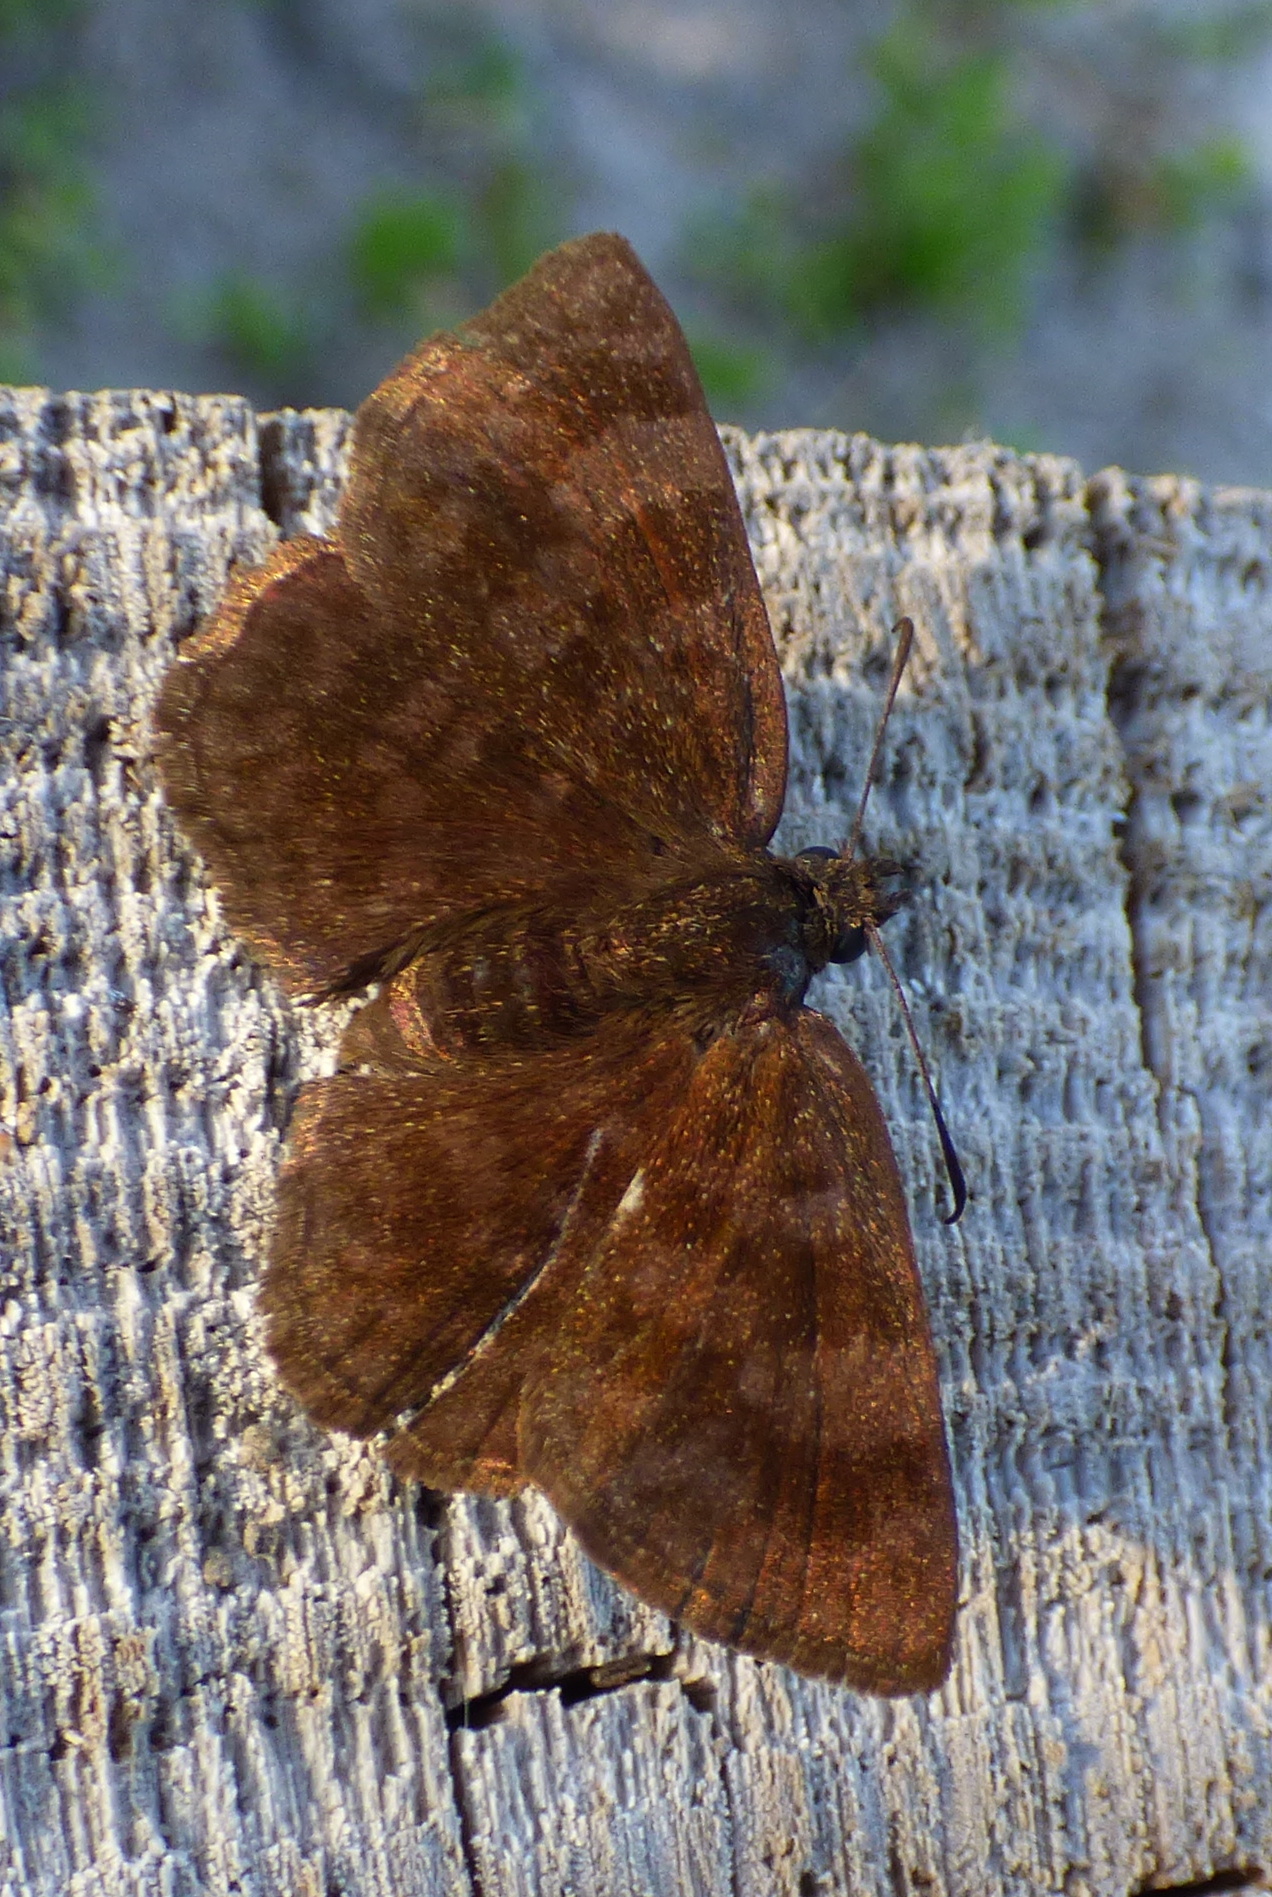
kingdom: Animalia
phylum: Arthropoda
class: Insecta
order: Lepidoptera
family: Hesperiidae
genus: Viola
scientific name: Viola minor
